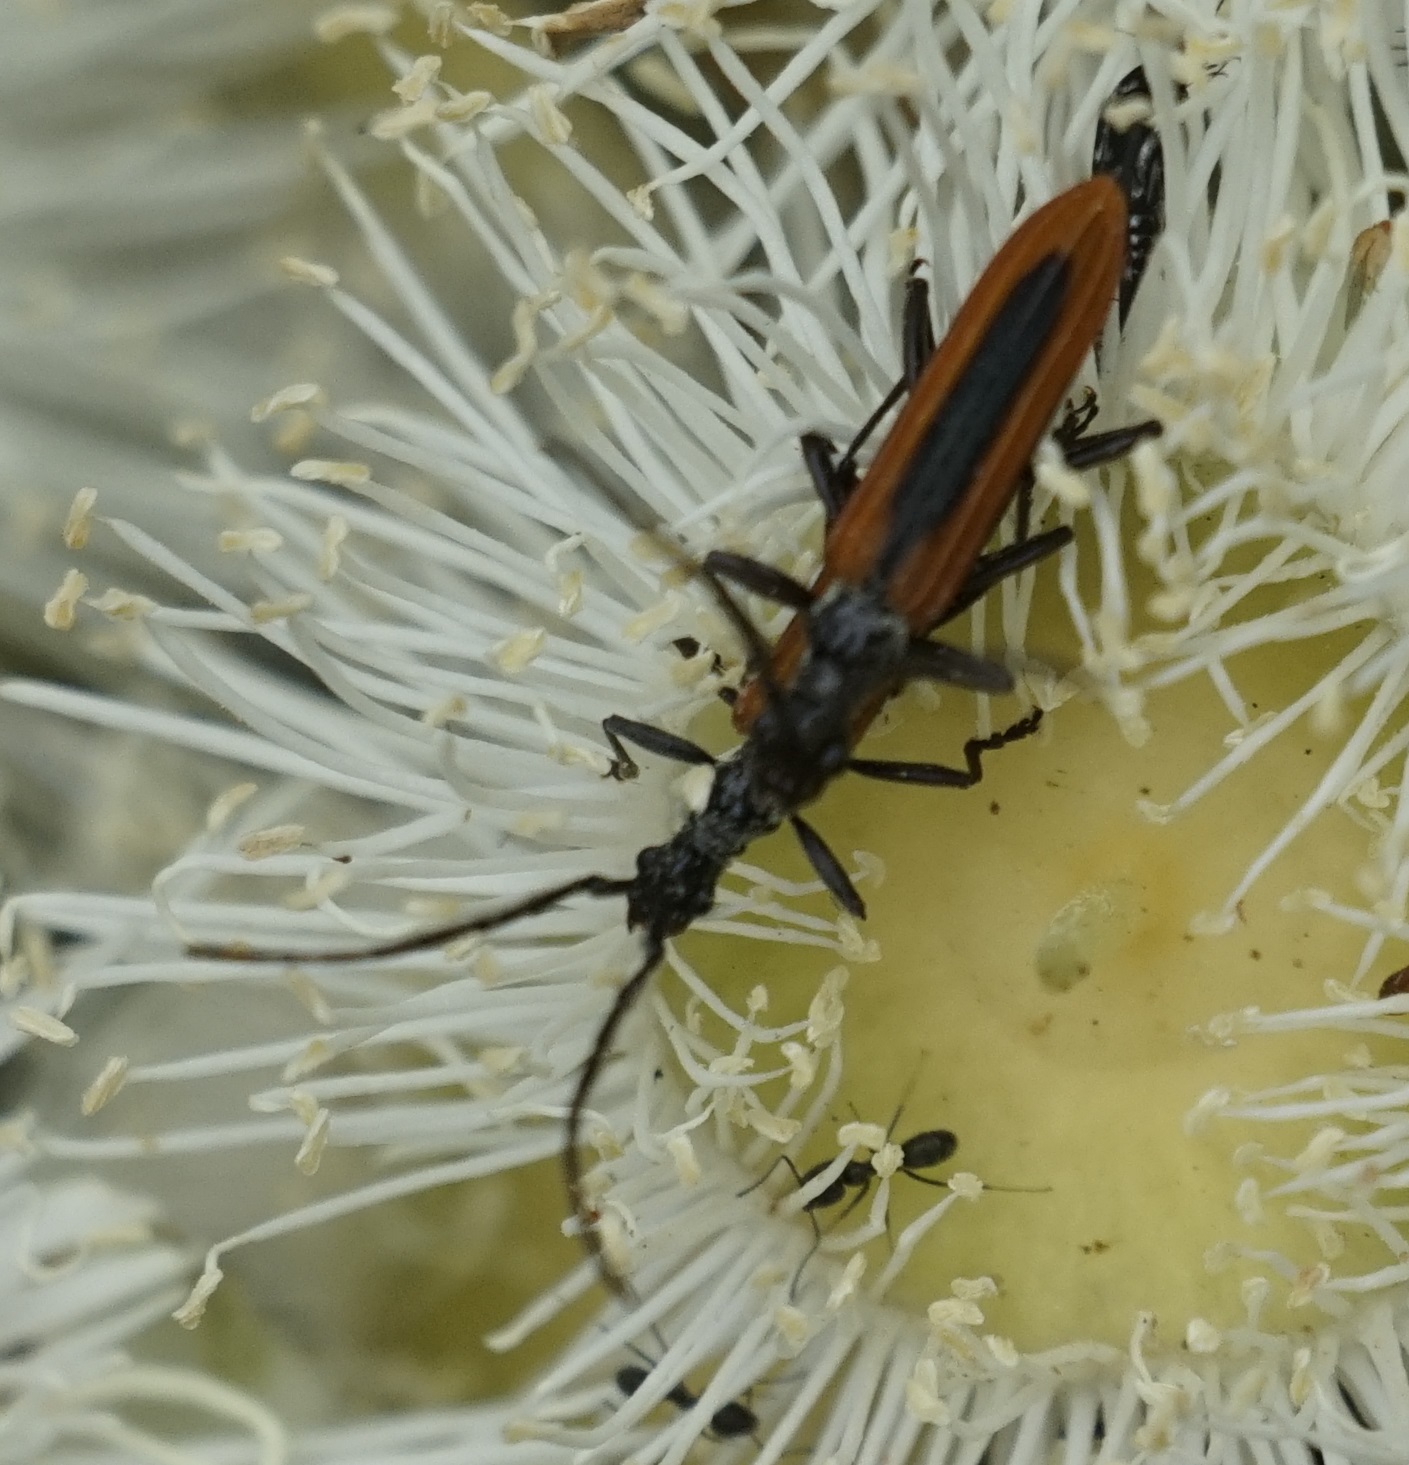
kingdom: Animalia
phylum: Arthropoda
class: Insecta
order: Coleoptera
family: Cerambycidae
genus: Stenoderus
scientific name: Stenoderus suturalis
